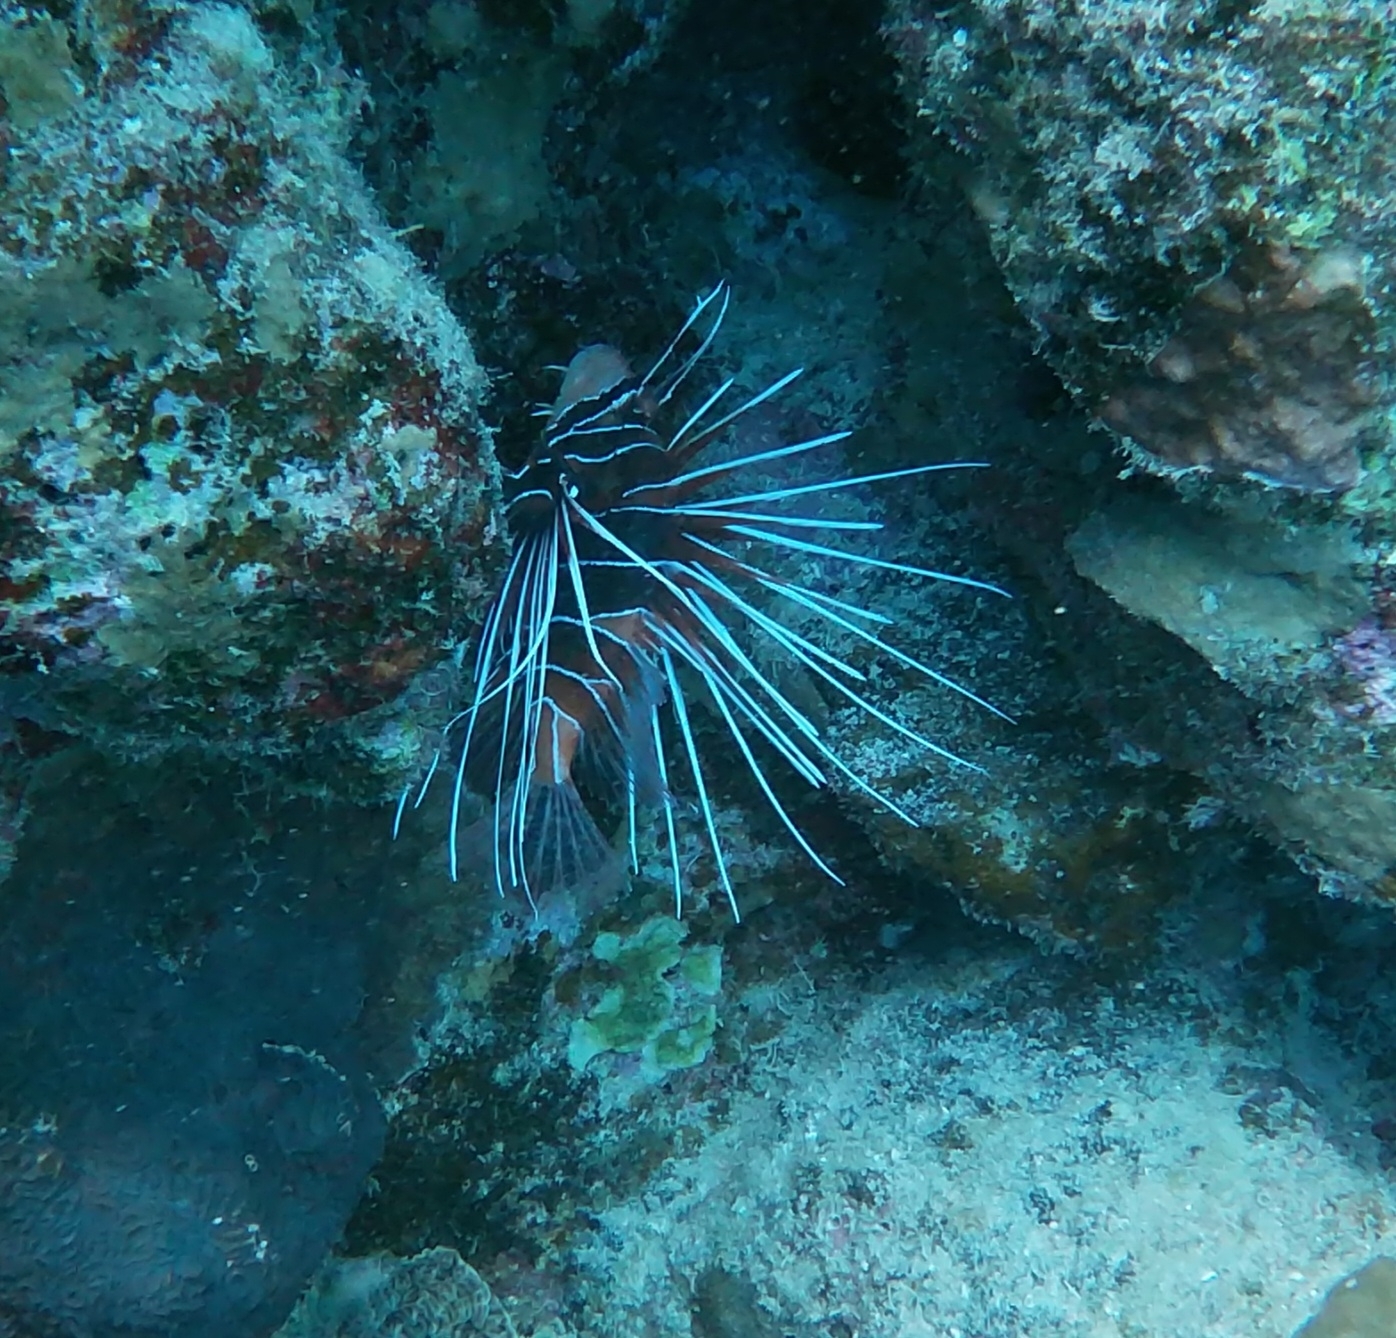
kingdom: Animalia
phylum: Chordata
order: Scorpaeniformes
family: Scorpaenidae
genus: Pterois
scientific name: Pterois cincta
